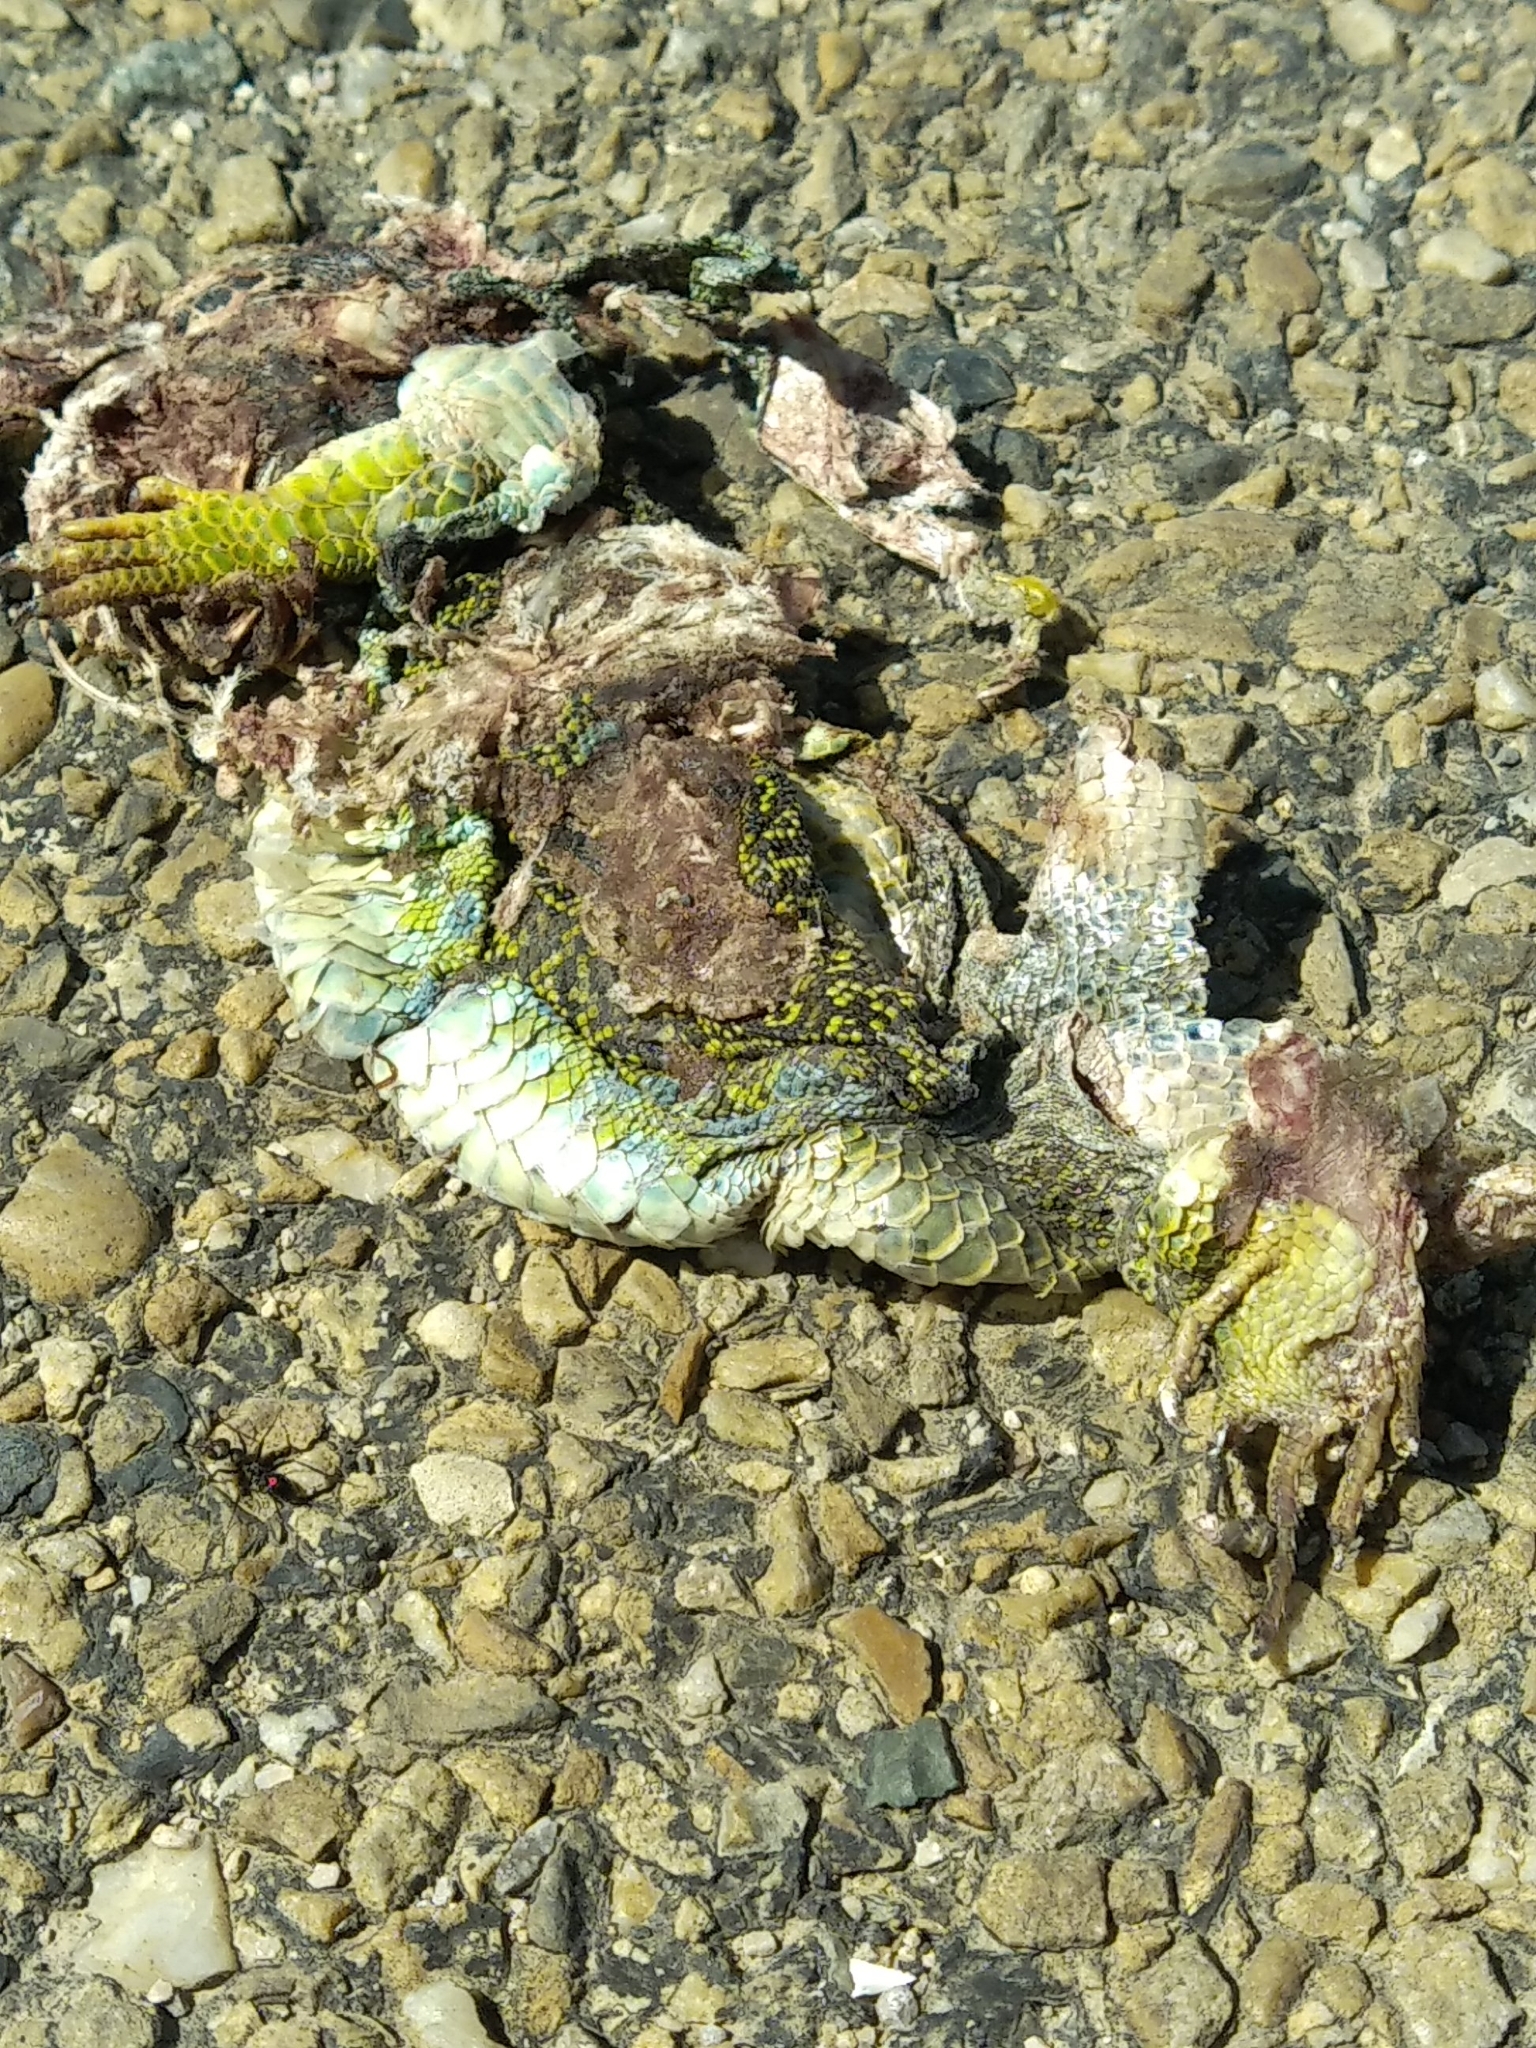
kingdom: Animalia
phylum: Chordata
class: Squamata
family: Lacertidae
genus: Timon
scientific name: Timon lepidus
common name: Ocellated lizard
